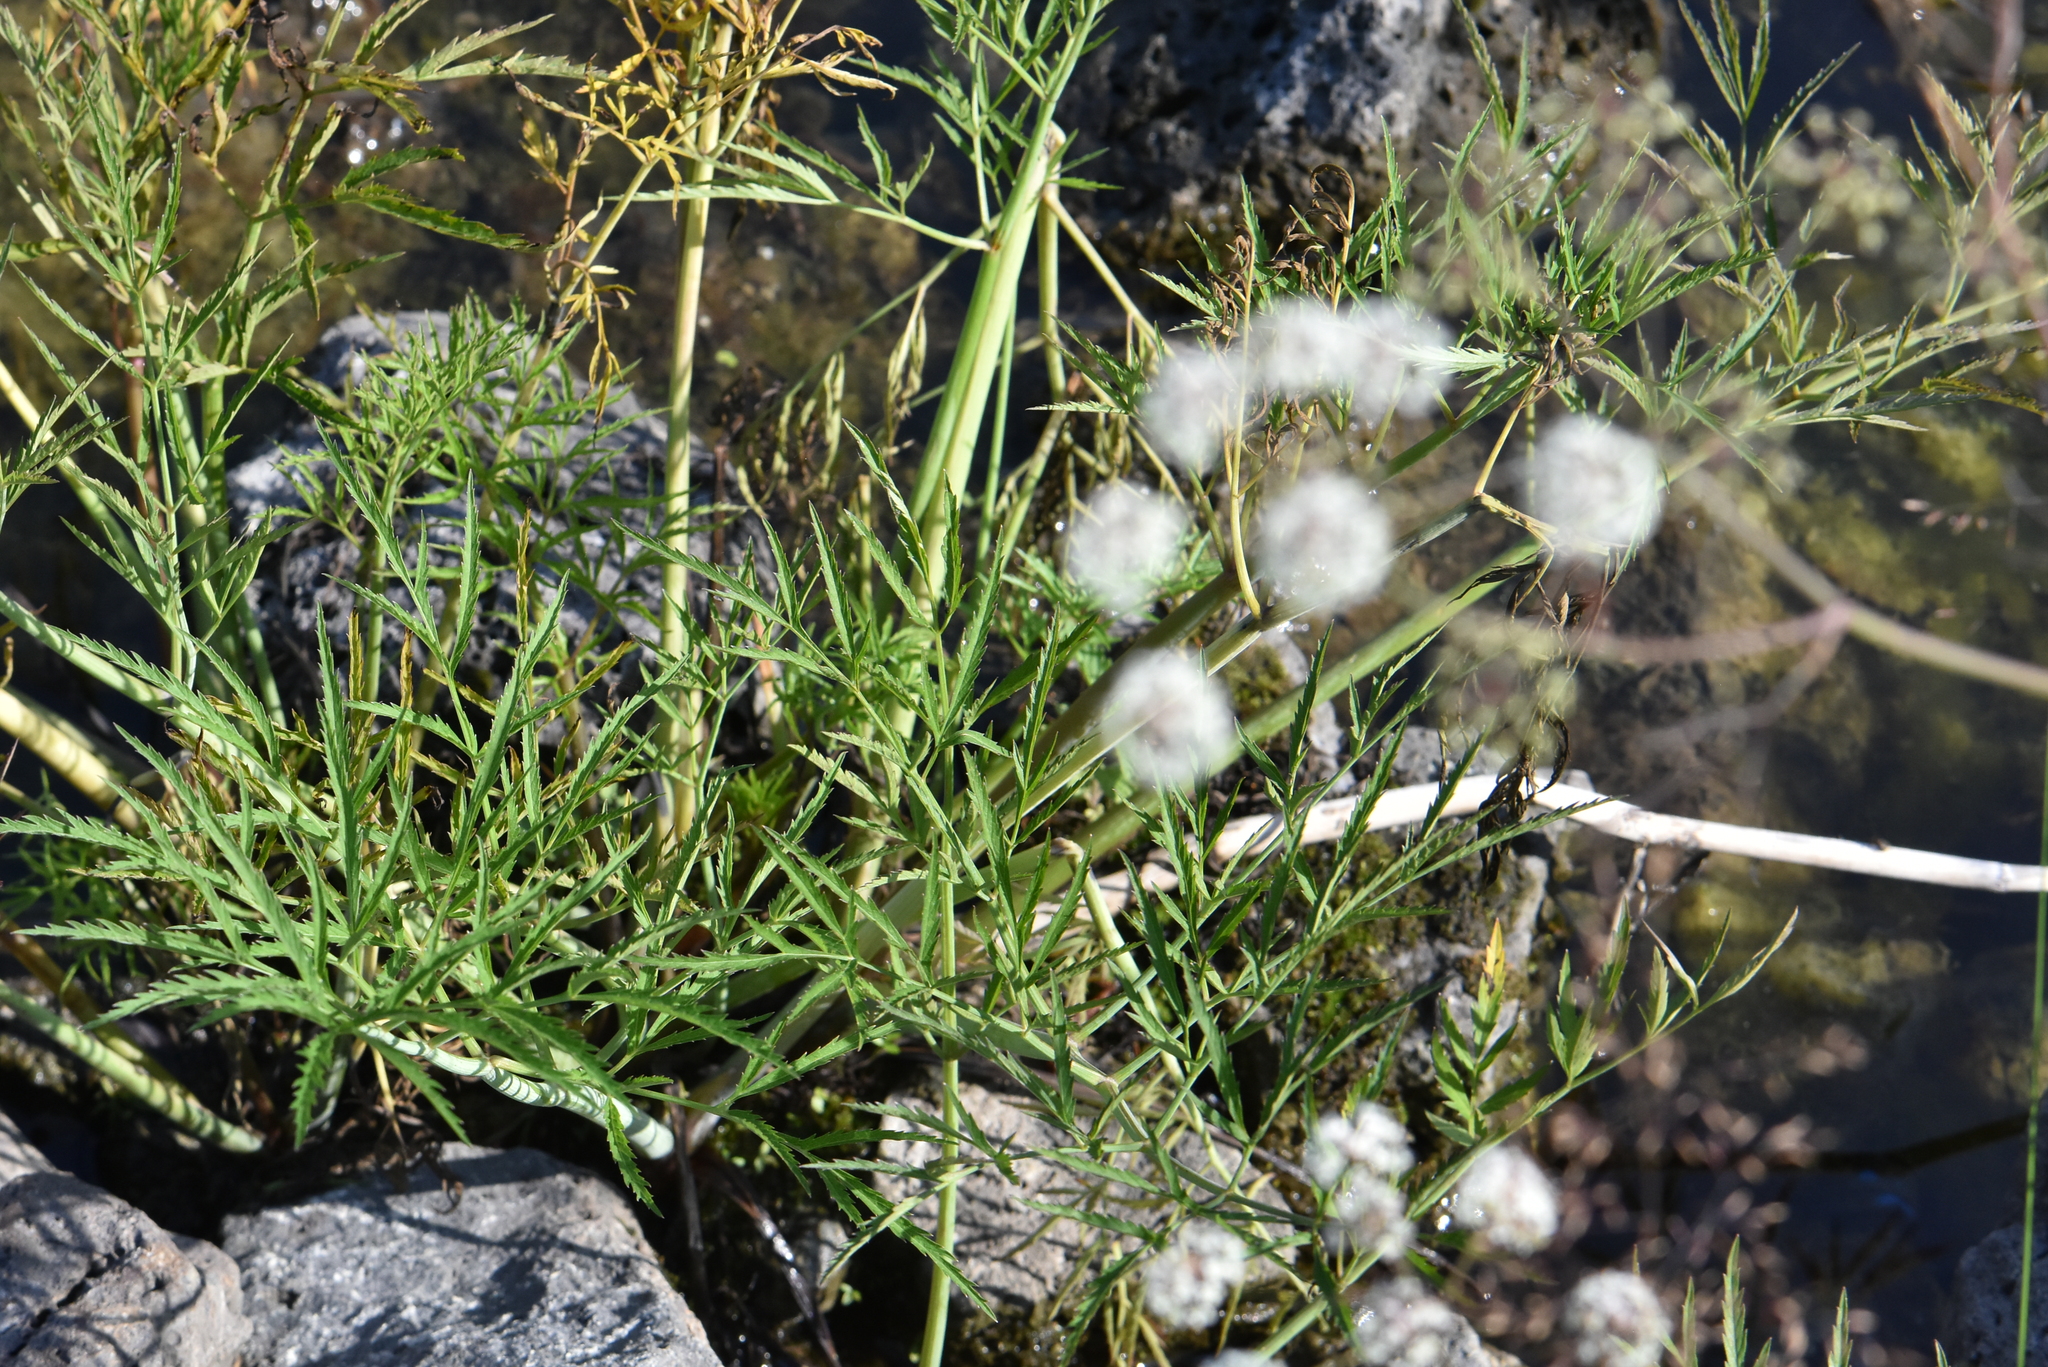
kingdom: Plantae
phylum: Tracheophyta
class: Magnoliopsida
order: Apiales
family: Apiaceae
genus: Cicuta
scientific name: Cicuta virosa
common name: Cowbane
